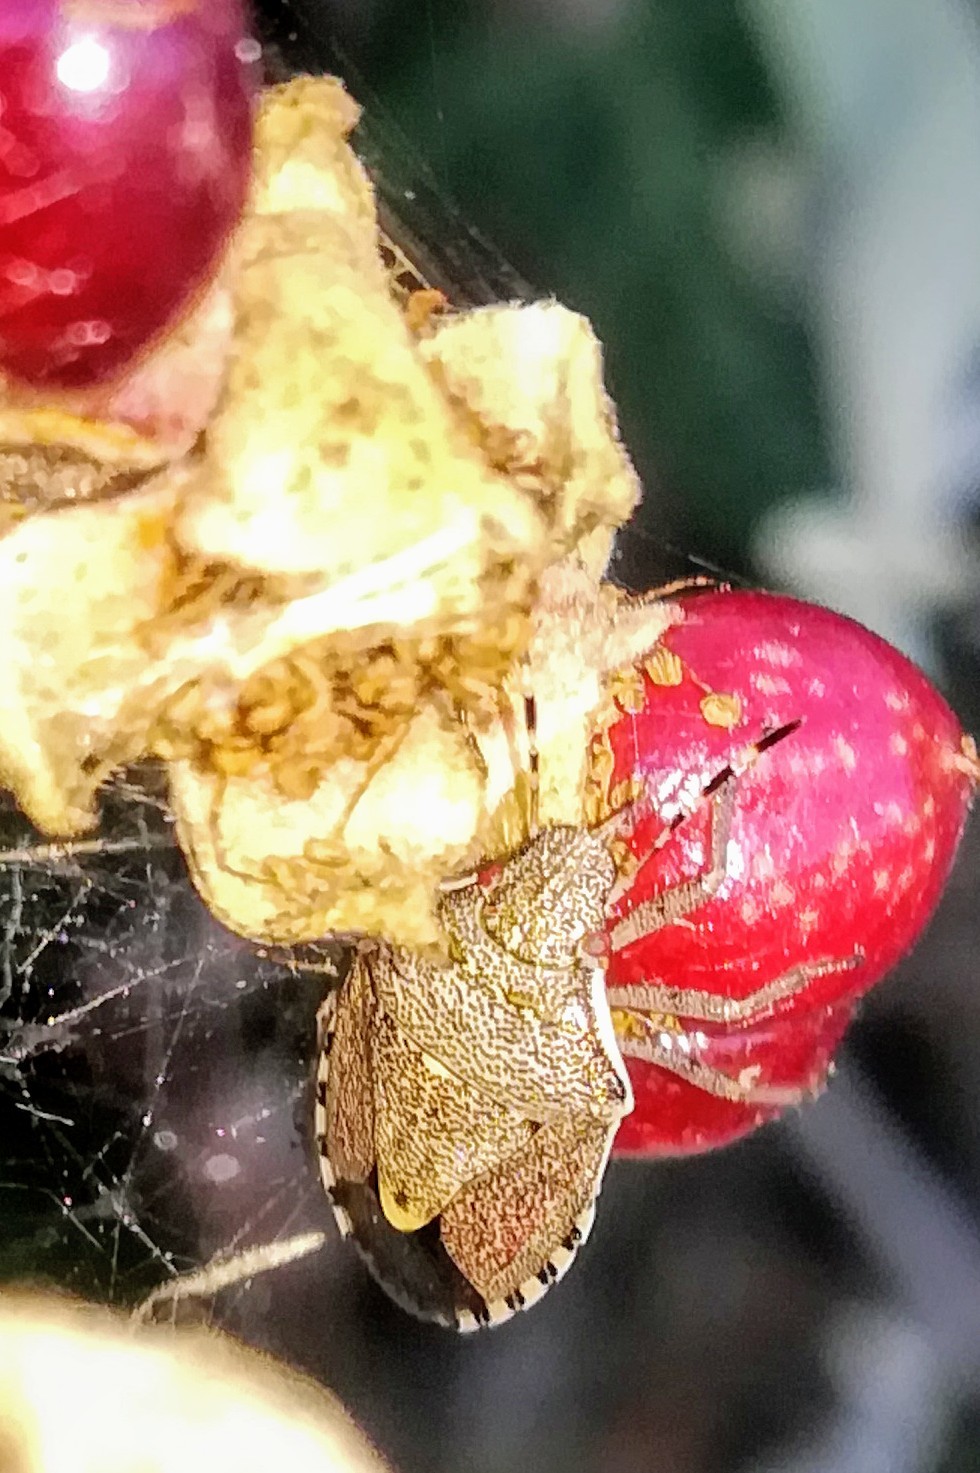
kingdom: Animalia
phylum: Arthropoda
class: Insecta
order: Hemiptera
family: Pentatomidae
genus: Holcostethus
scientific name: Holcostethus albipes
